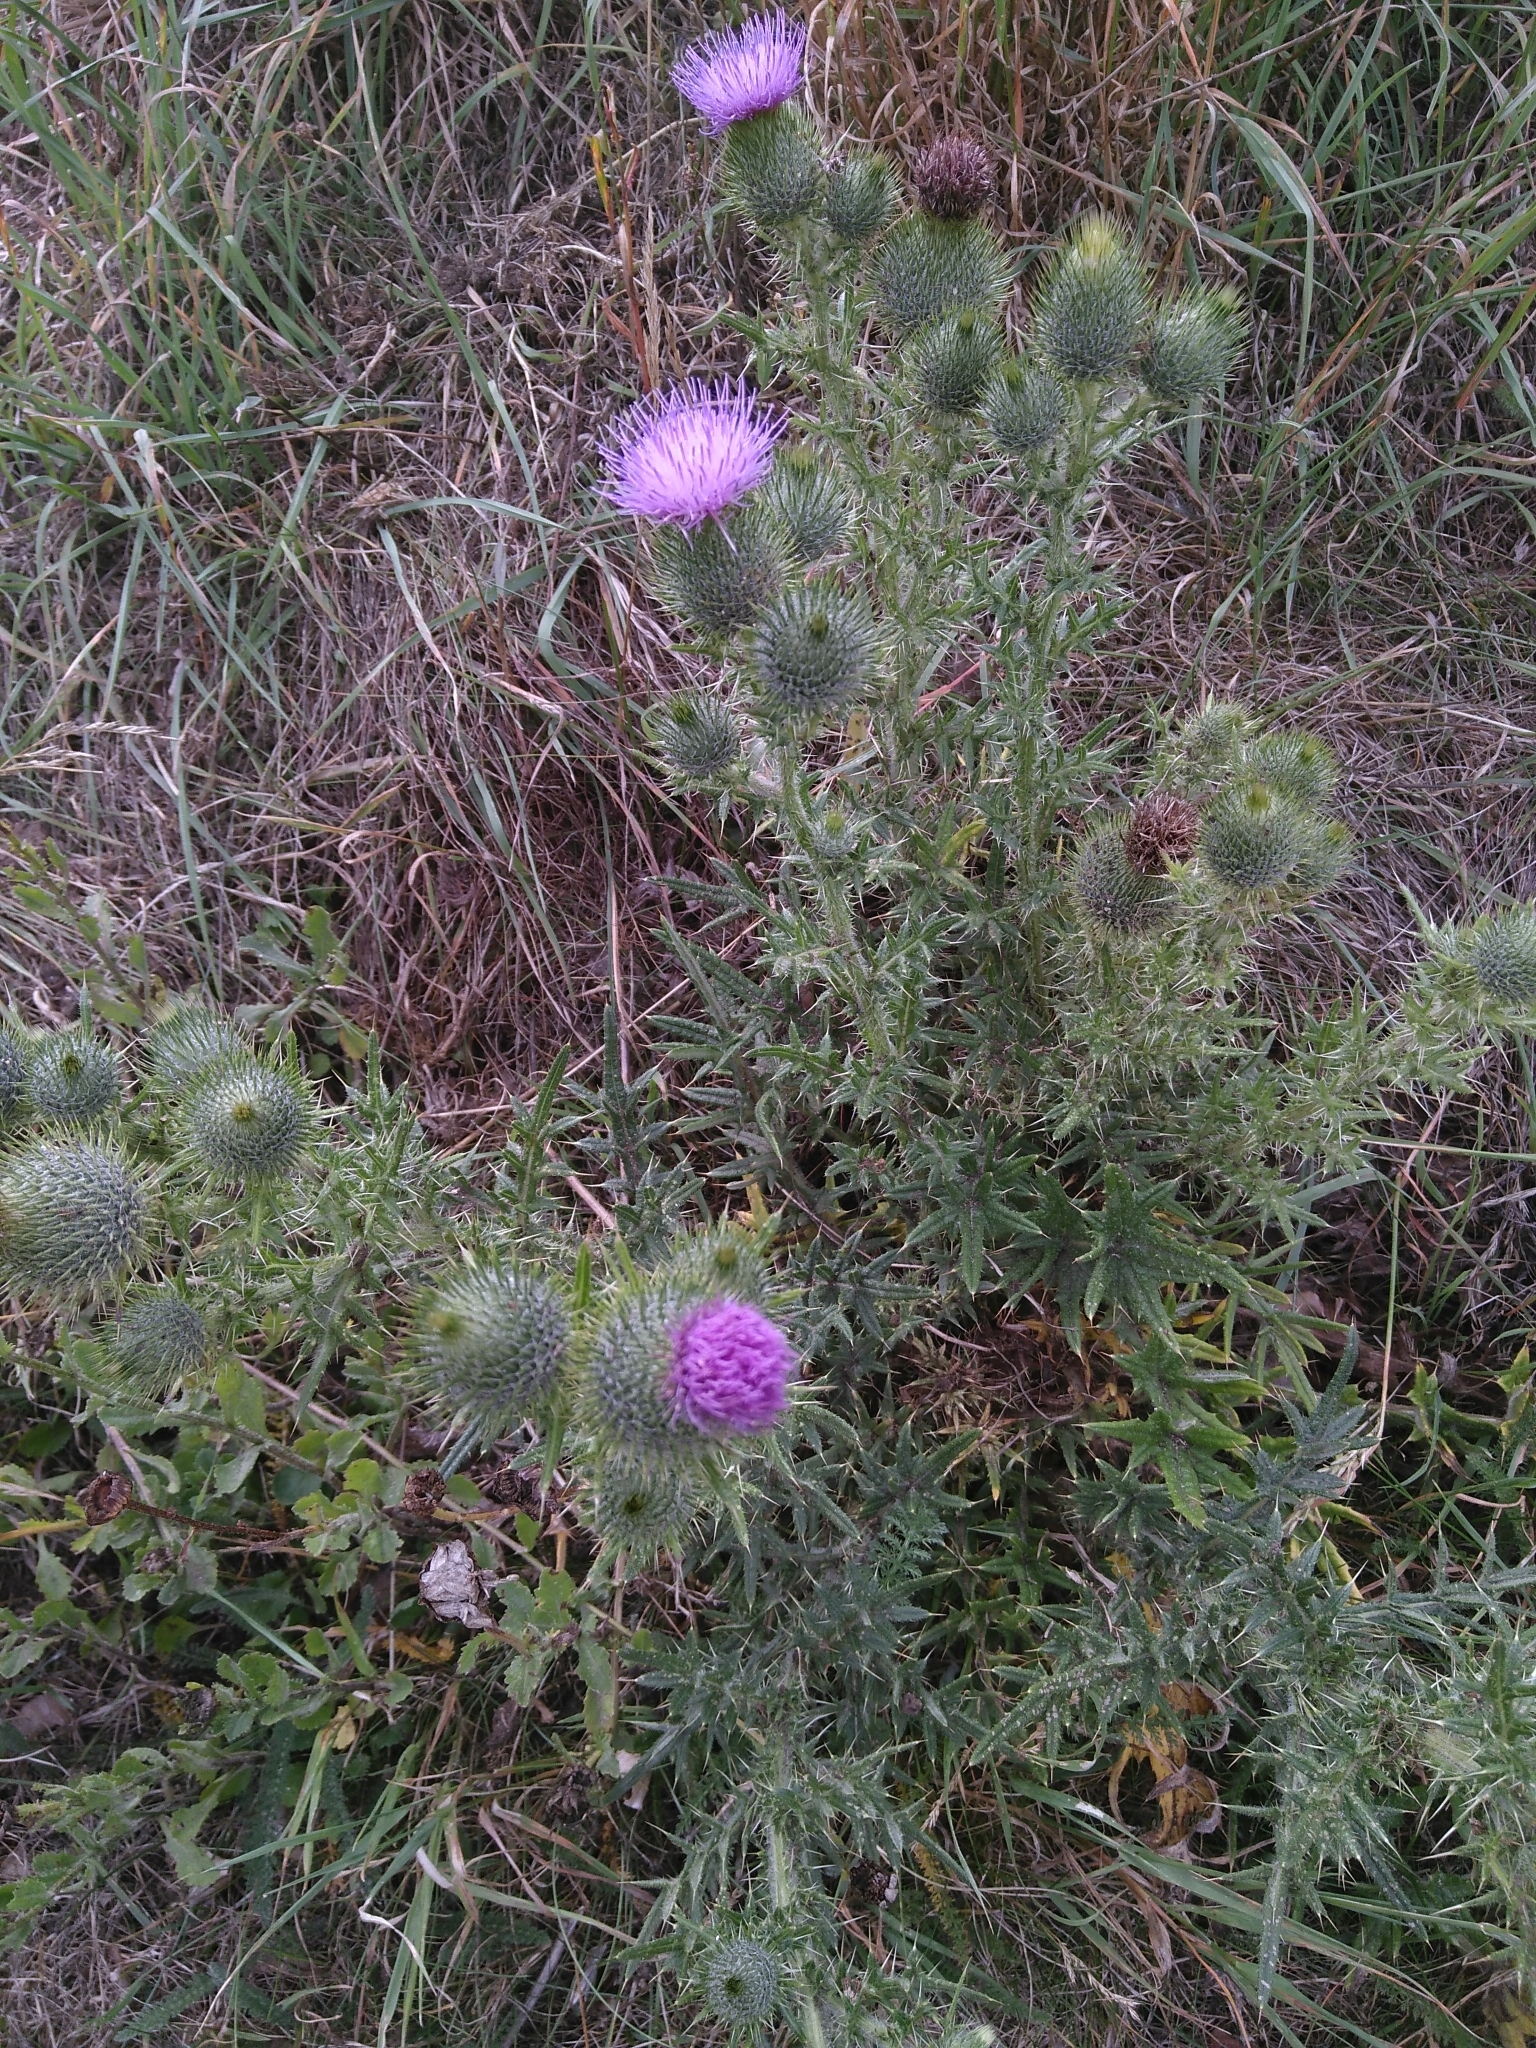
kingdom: Plantae
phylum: Tracheophyta
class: Magnoliopsida
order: Asterales
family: Asteraceae
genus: Cirsium
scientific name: Cirsium vulgare
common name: Bull thistle
